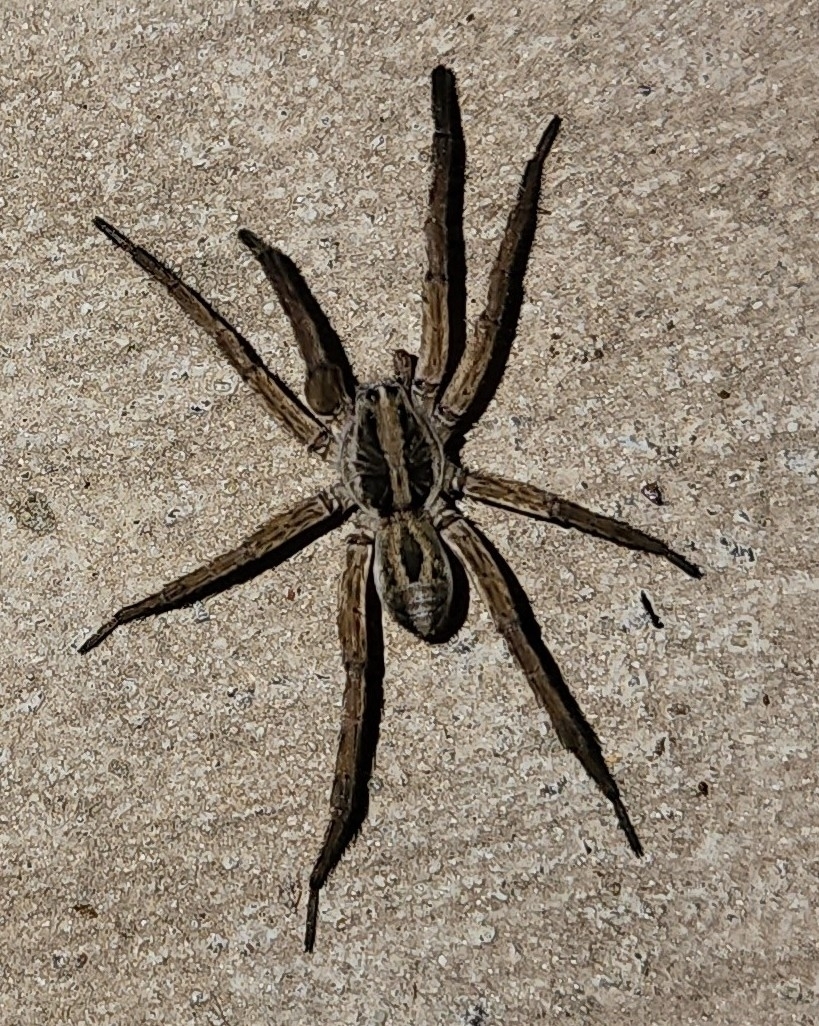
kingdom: Animalia
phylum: Arthropoda
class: Arachnida
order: Araneae
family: Lycosidae
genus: Schizocosa
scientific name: Schizocosa avida
